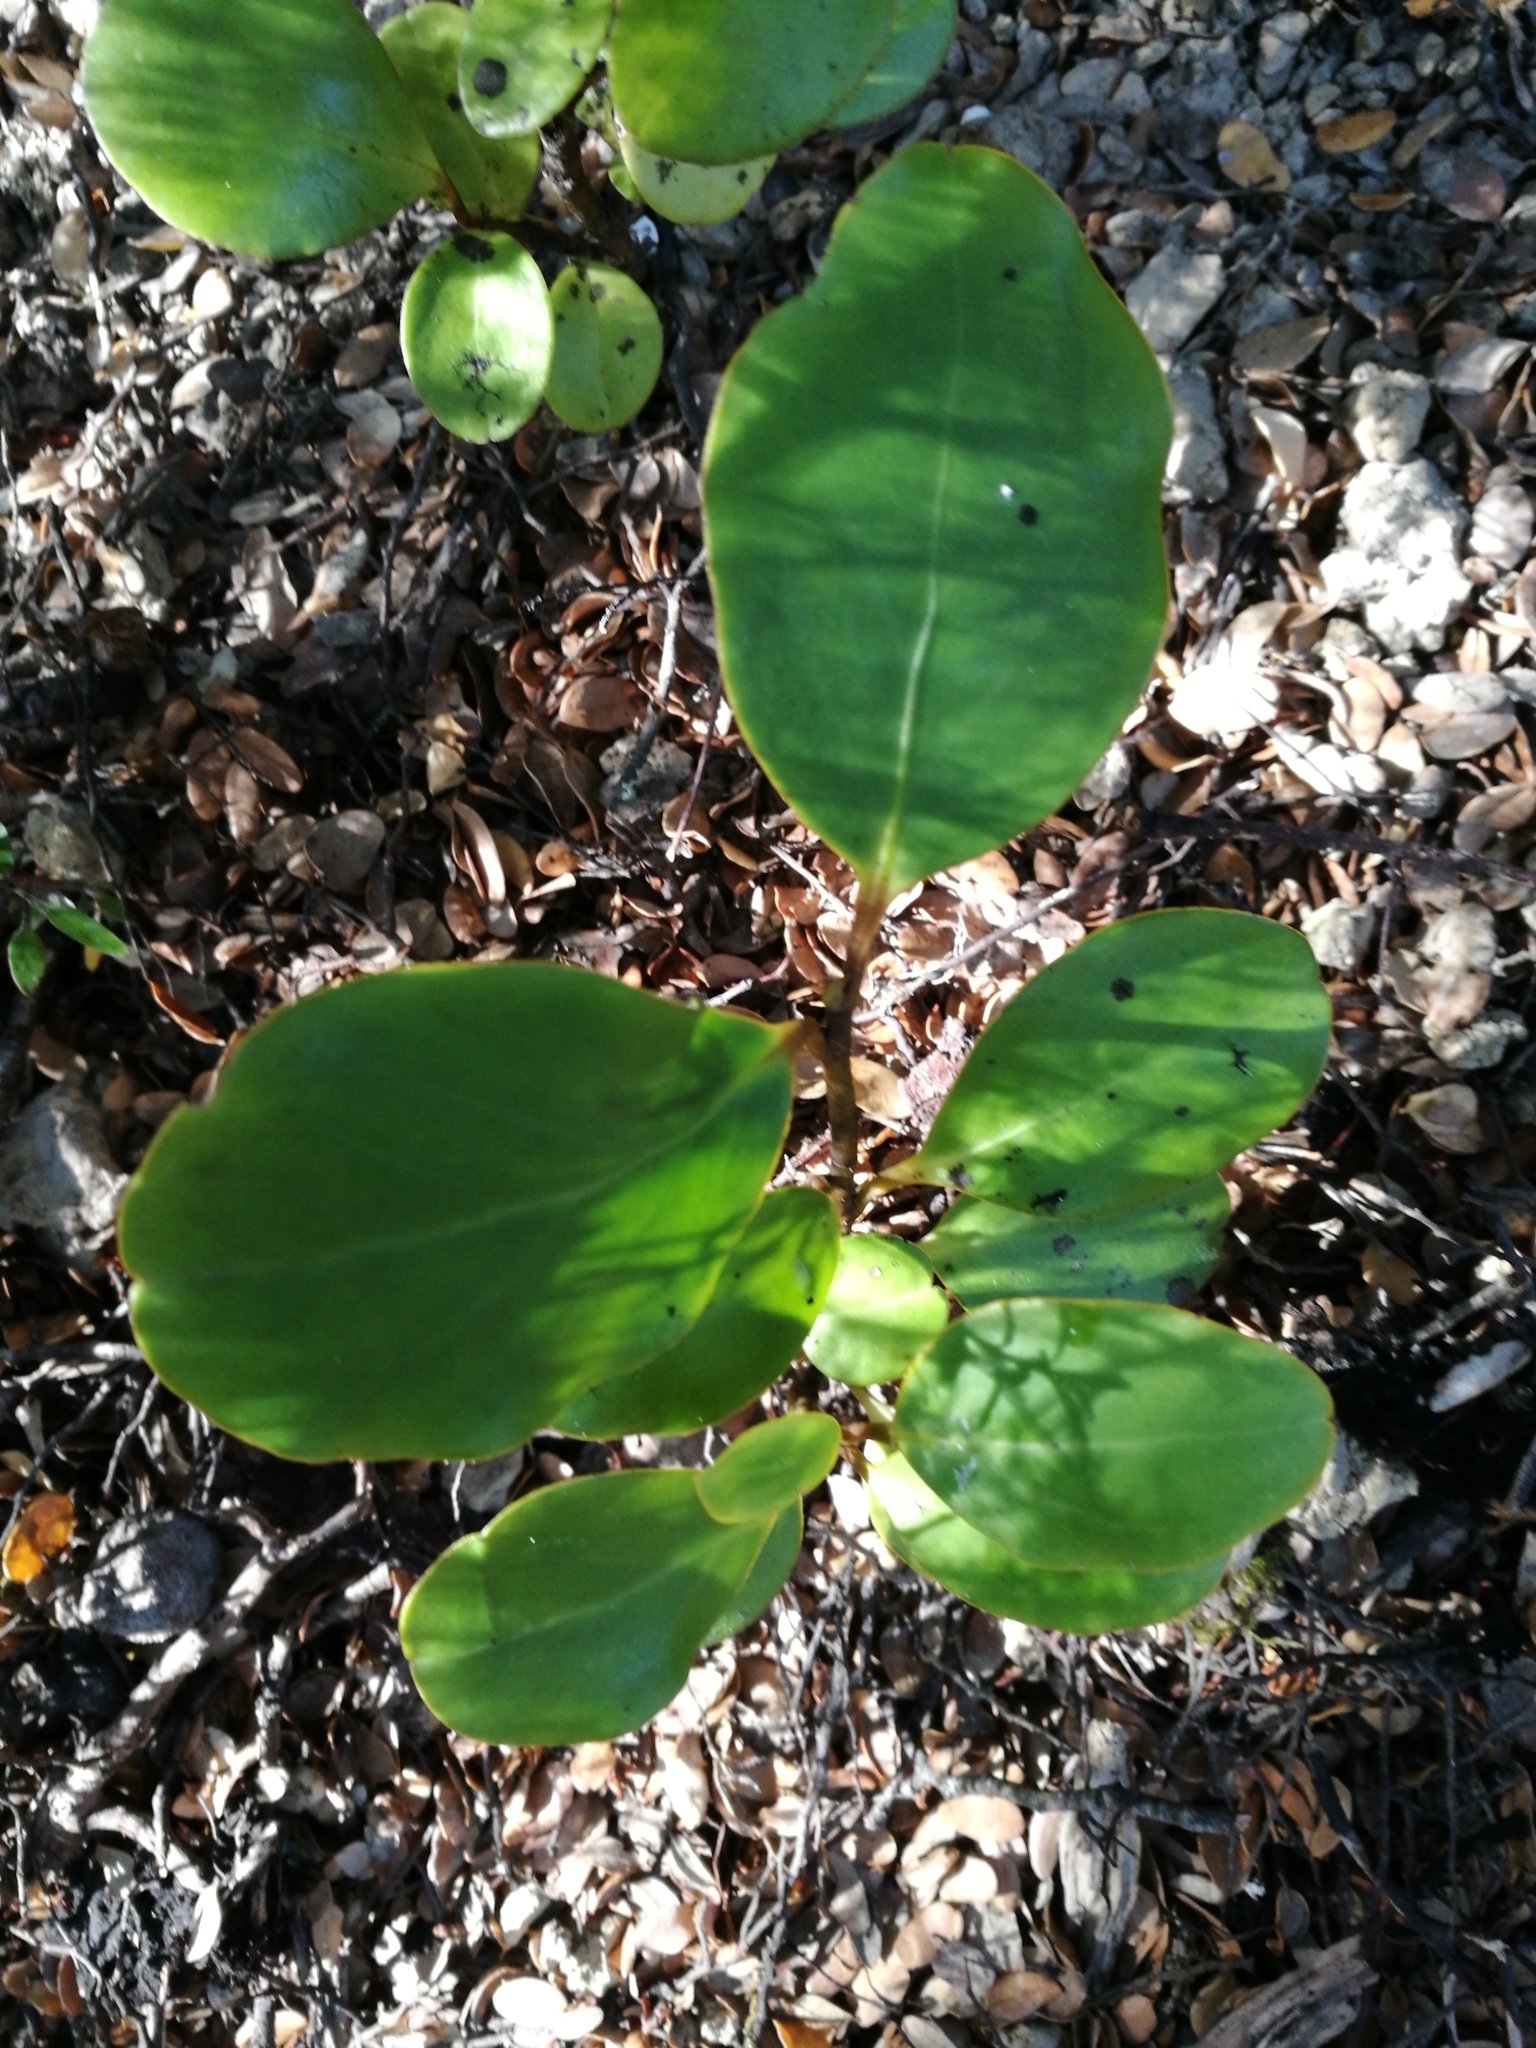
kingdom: Plantae
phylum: Tracheophyta
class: Magnoliopsida
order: Apiales
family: Griseliniaceae
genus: Griselinia
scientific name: Griselinia littoralis
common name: New zealand broadleaf
